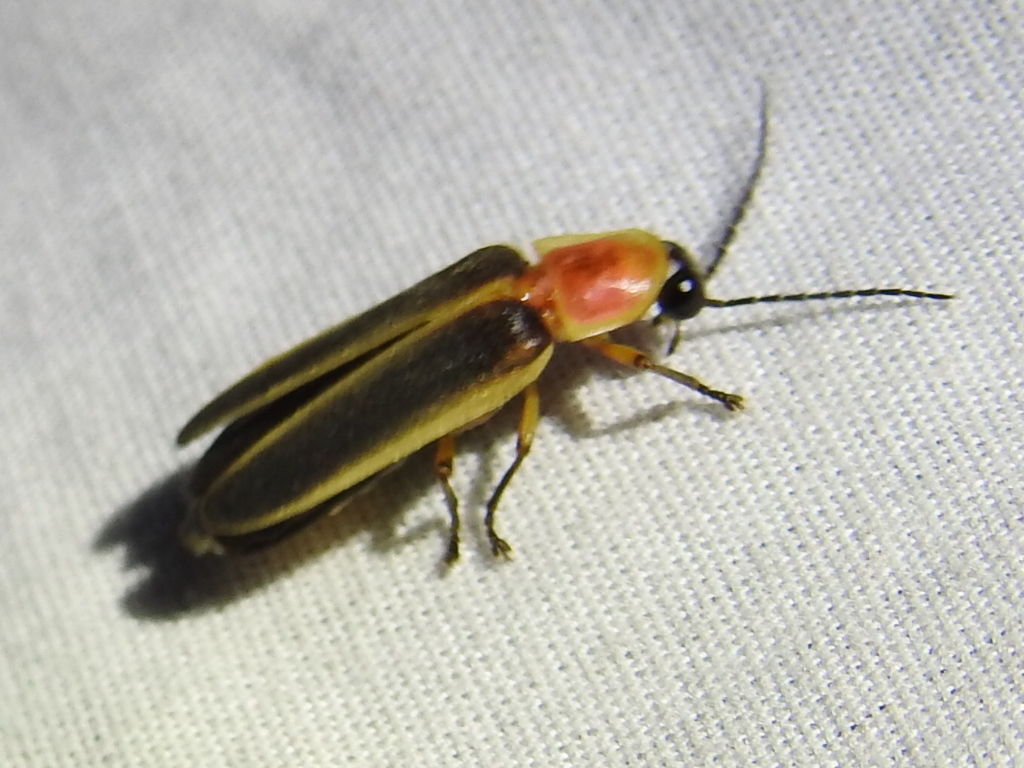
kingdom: Animalia
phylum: Arthropoda
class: Insecta
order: Coleoptera
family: Lampyridae
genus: Photinus
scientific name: Photinus pyralis
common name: Big dipper firefly
